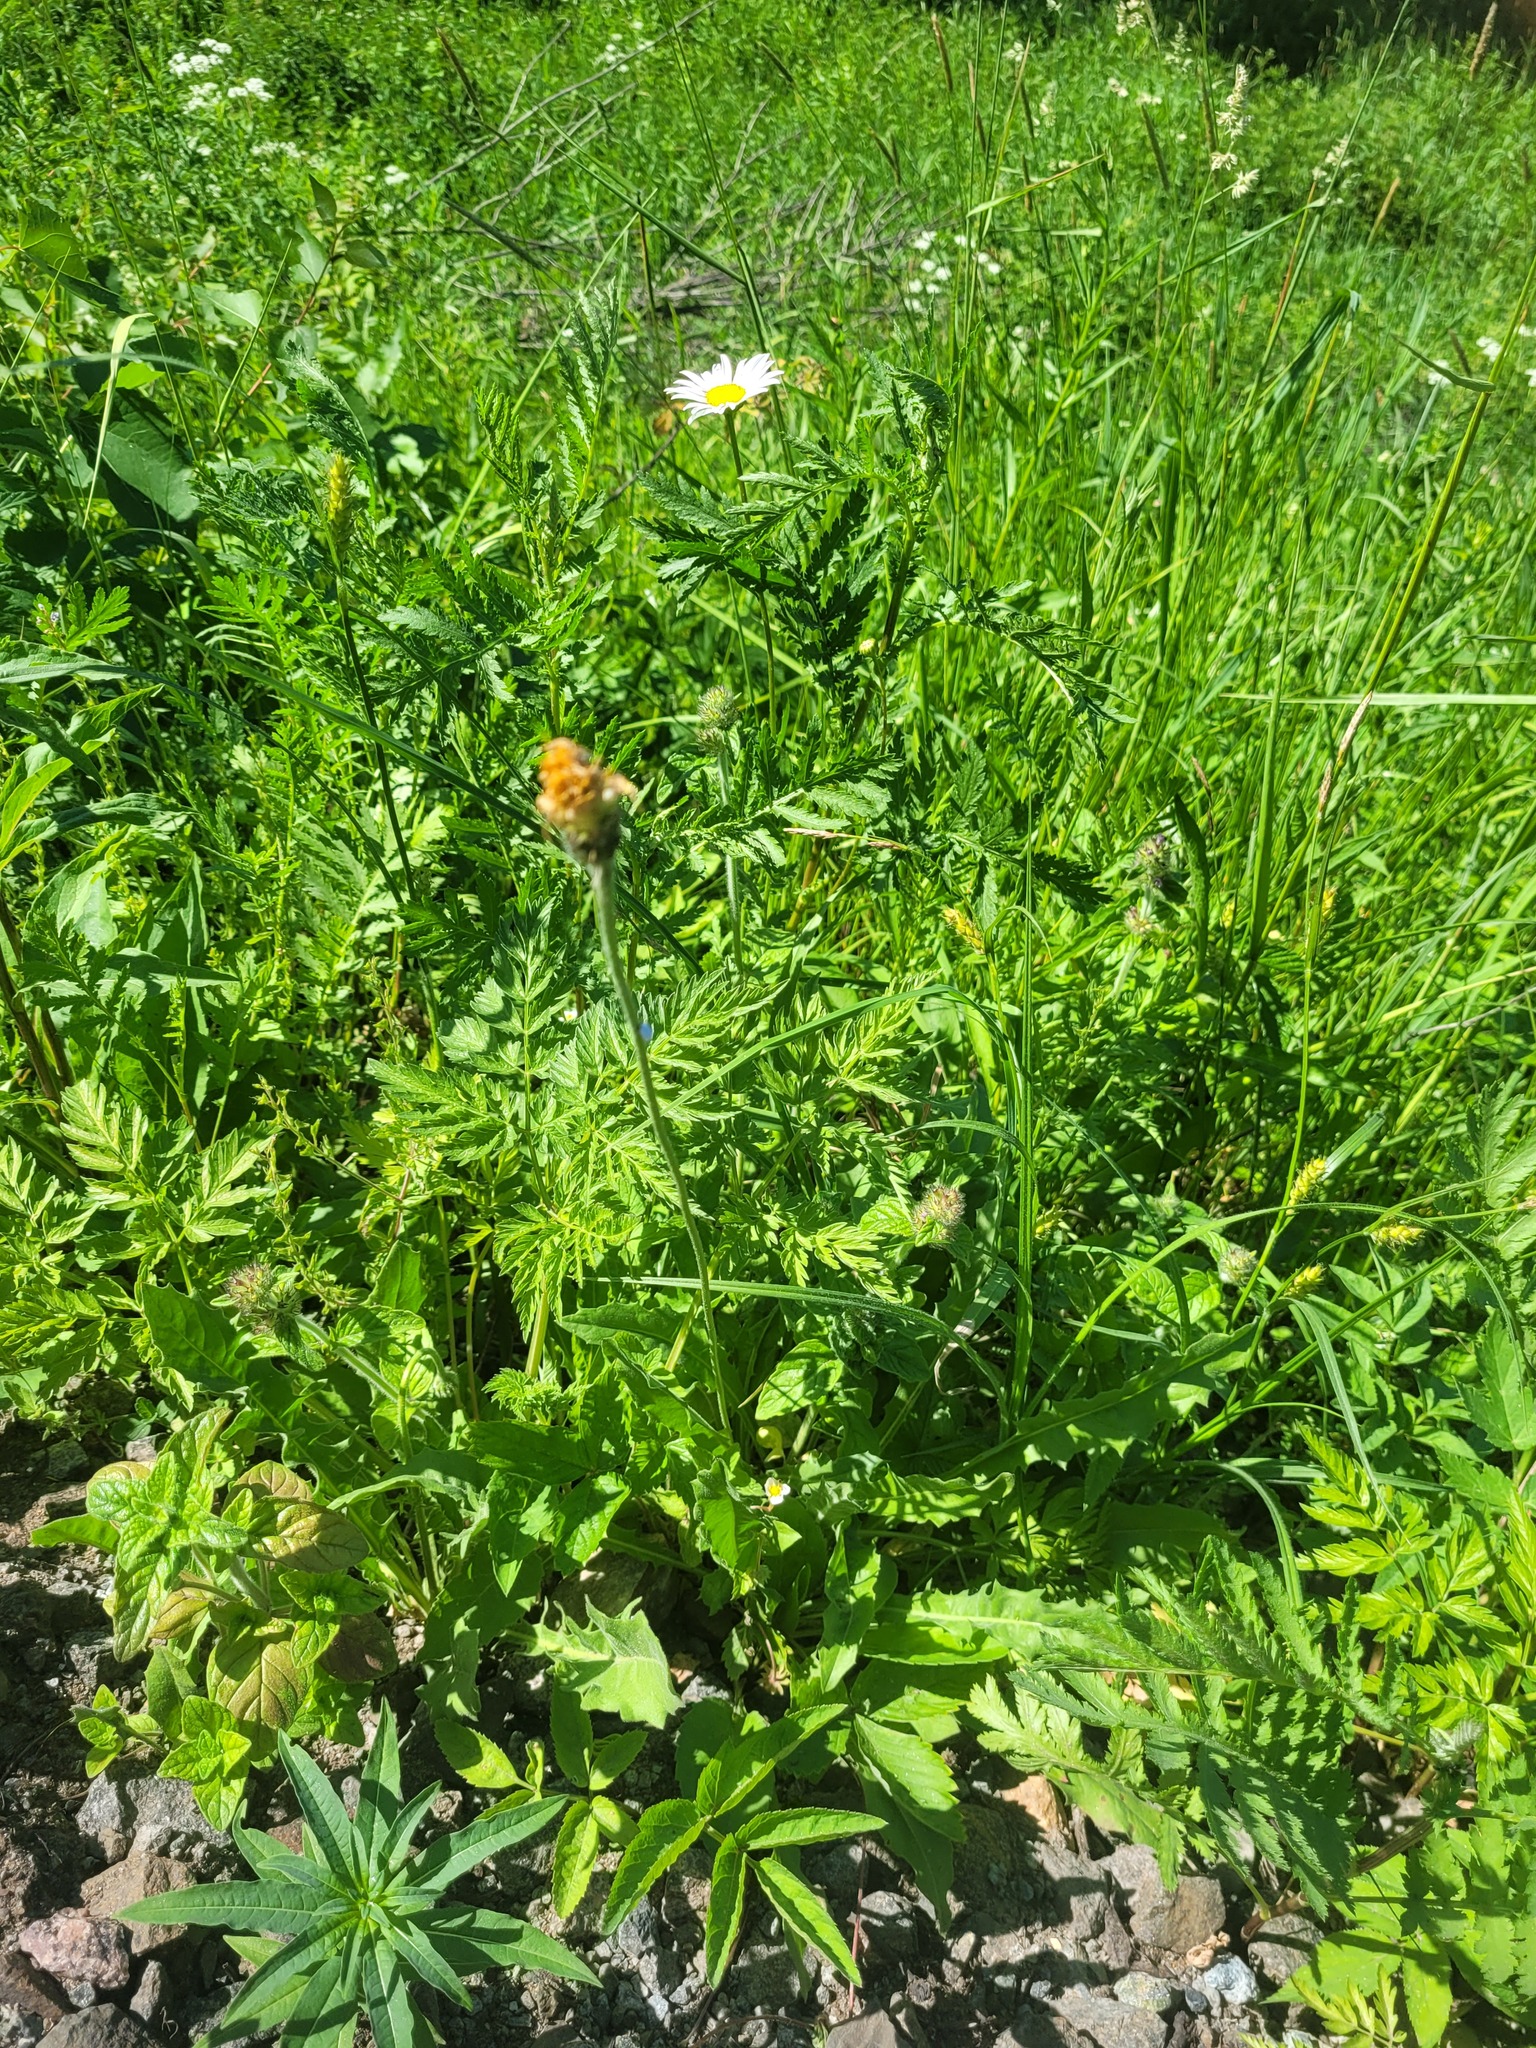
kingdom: Plantae
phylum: Tracheophyta
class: Magnoliopsida
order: Asterales
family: Asteraceae
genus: Leontodon
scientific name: Leontodon hispidus
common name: Rough hawkbit
